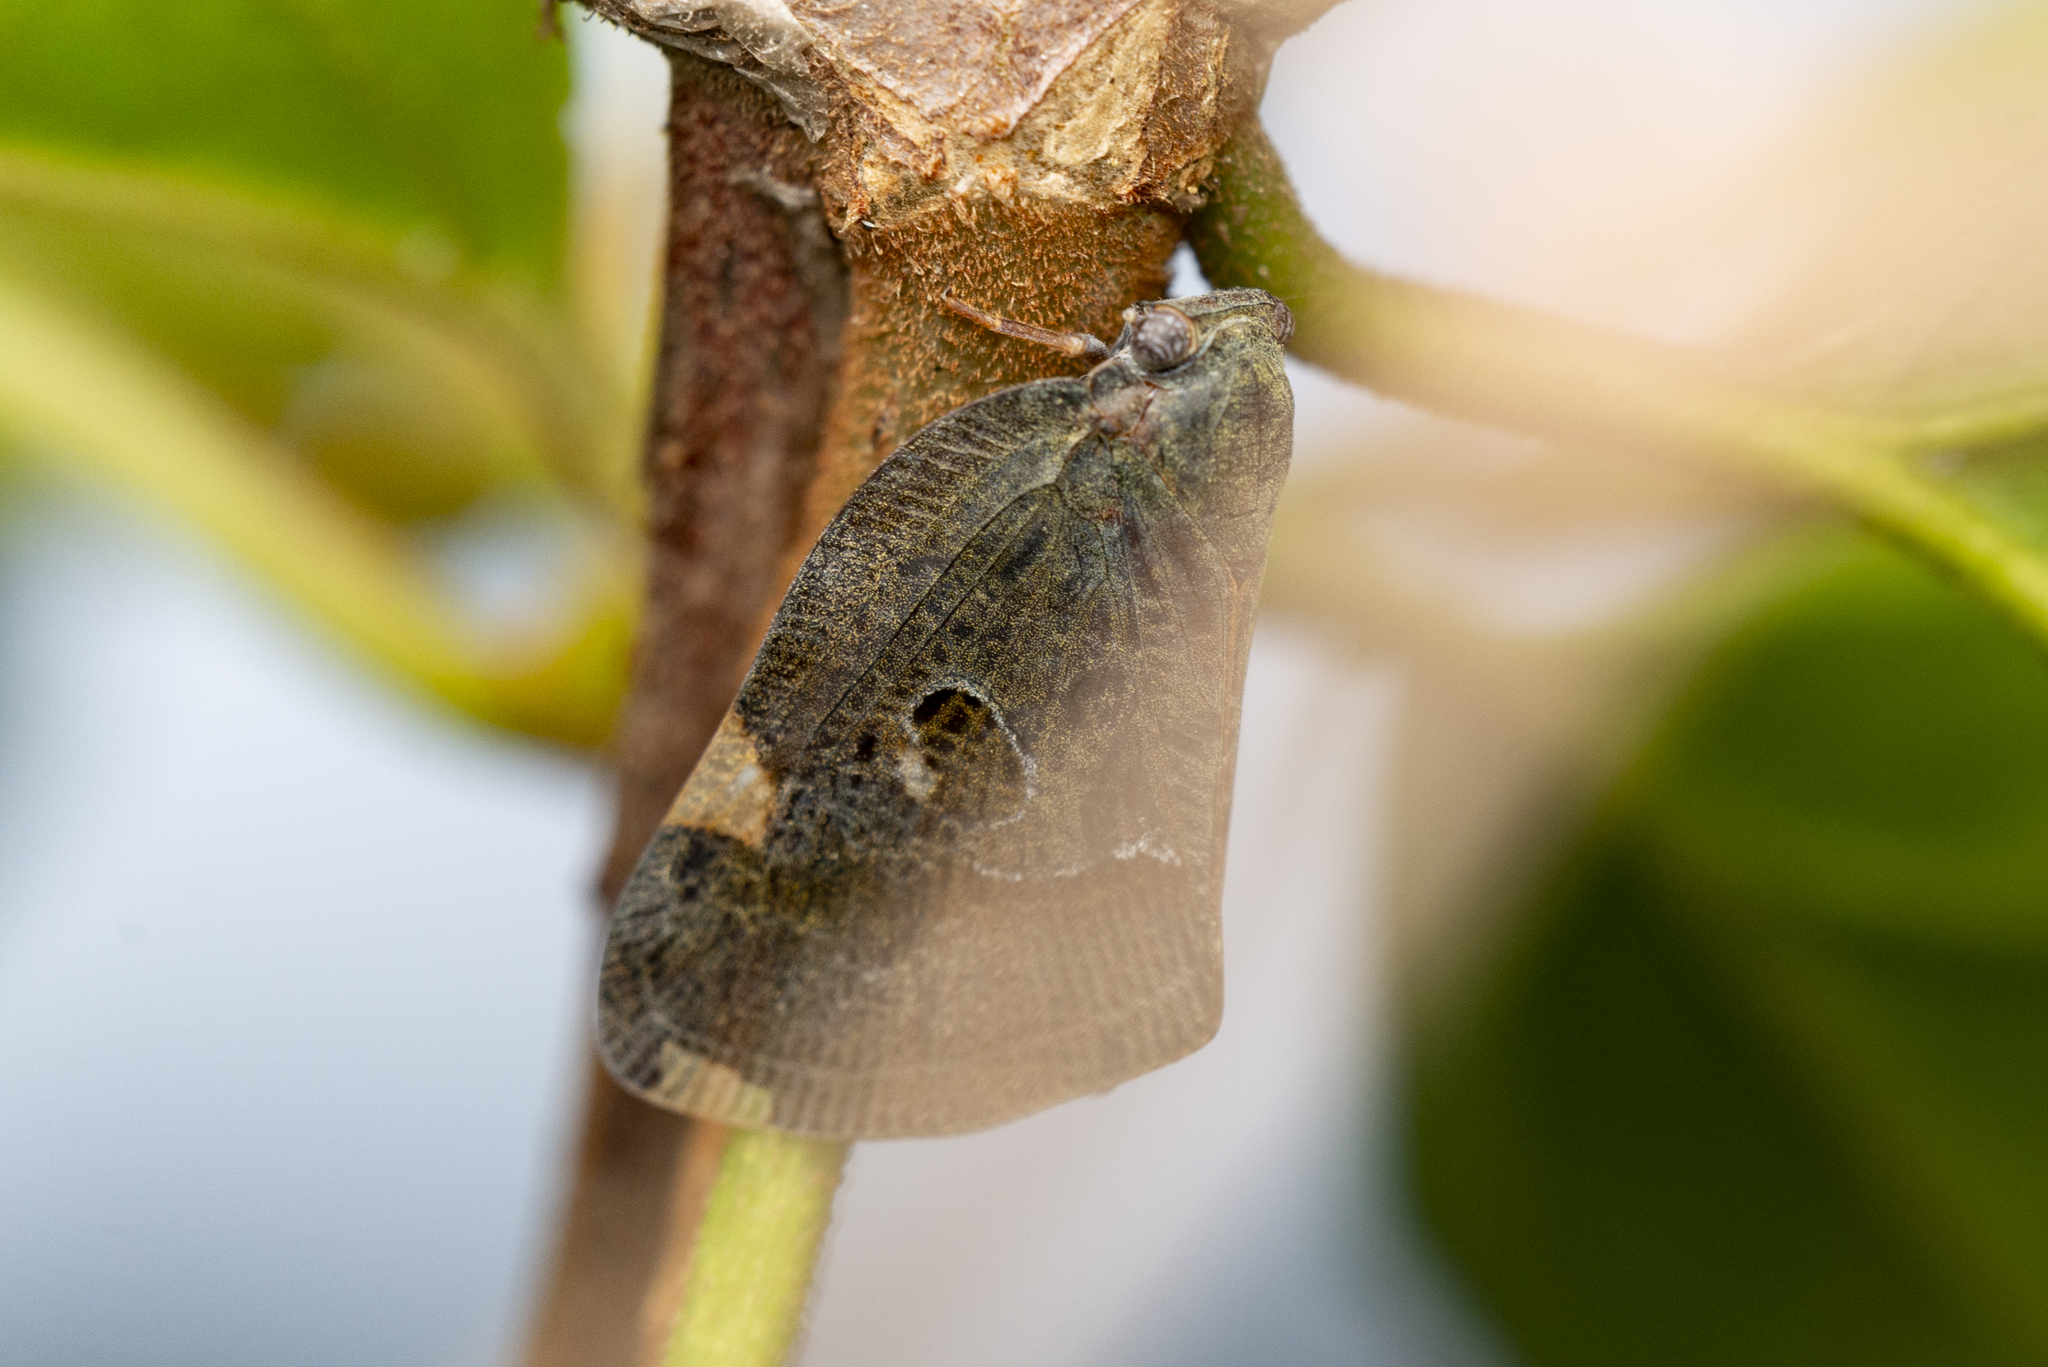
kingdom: Animalia
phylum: Arthropoda
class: Insecta
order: Hemiptera
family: Ricaniidae
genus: Ricania
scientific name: Ricania guttata
